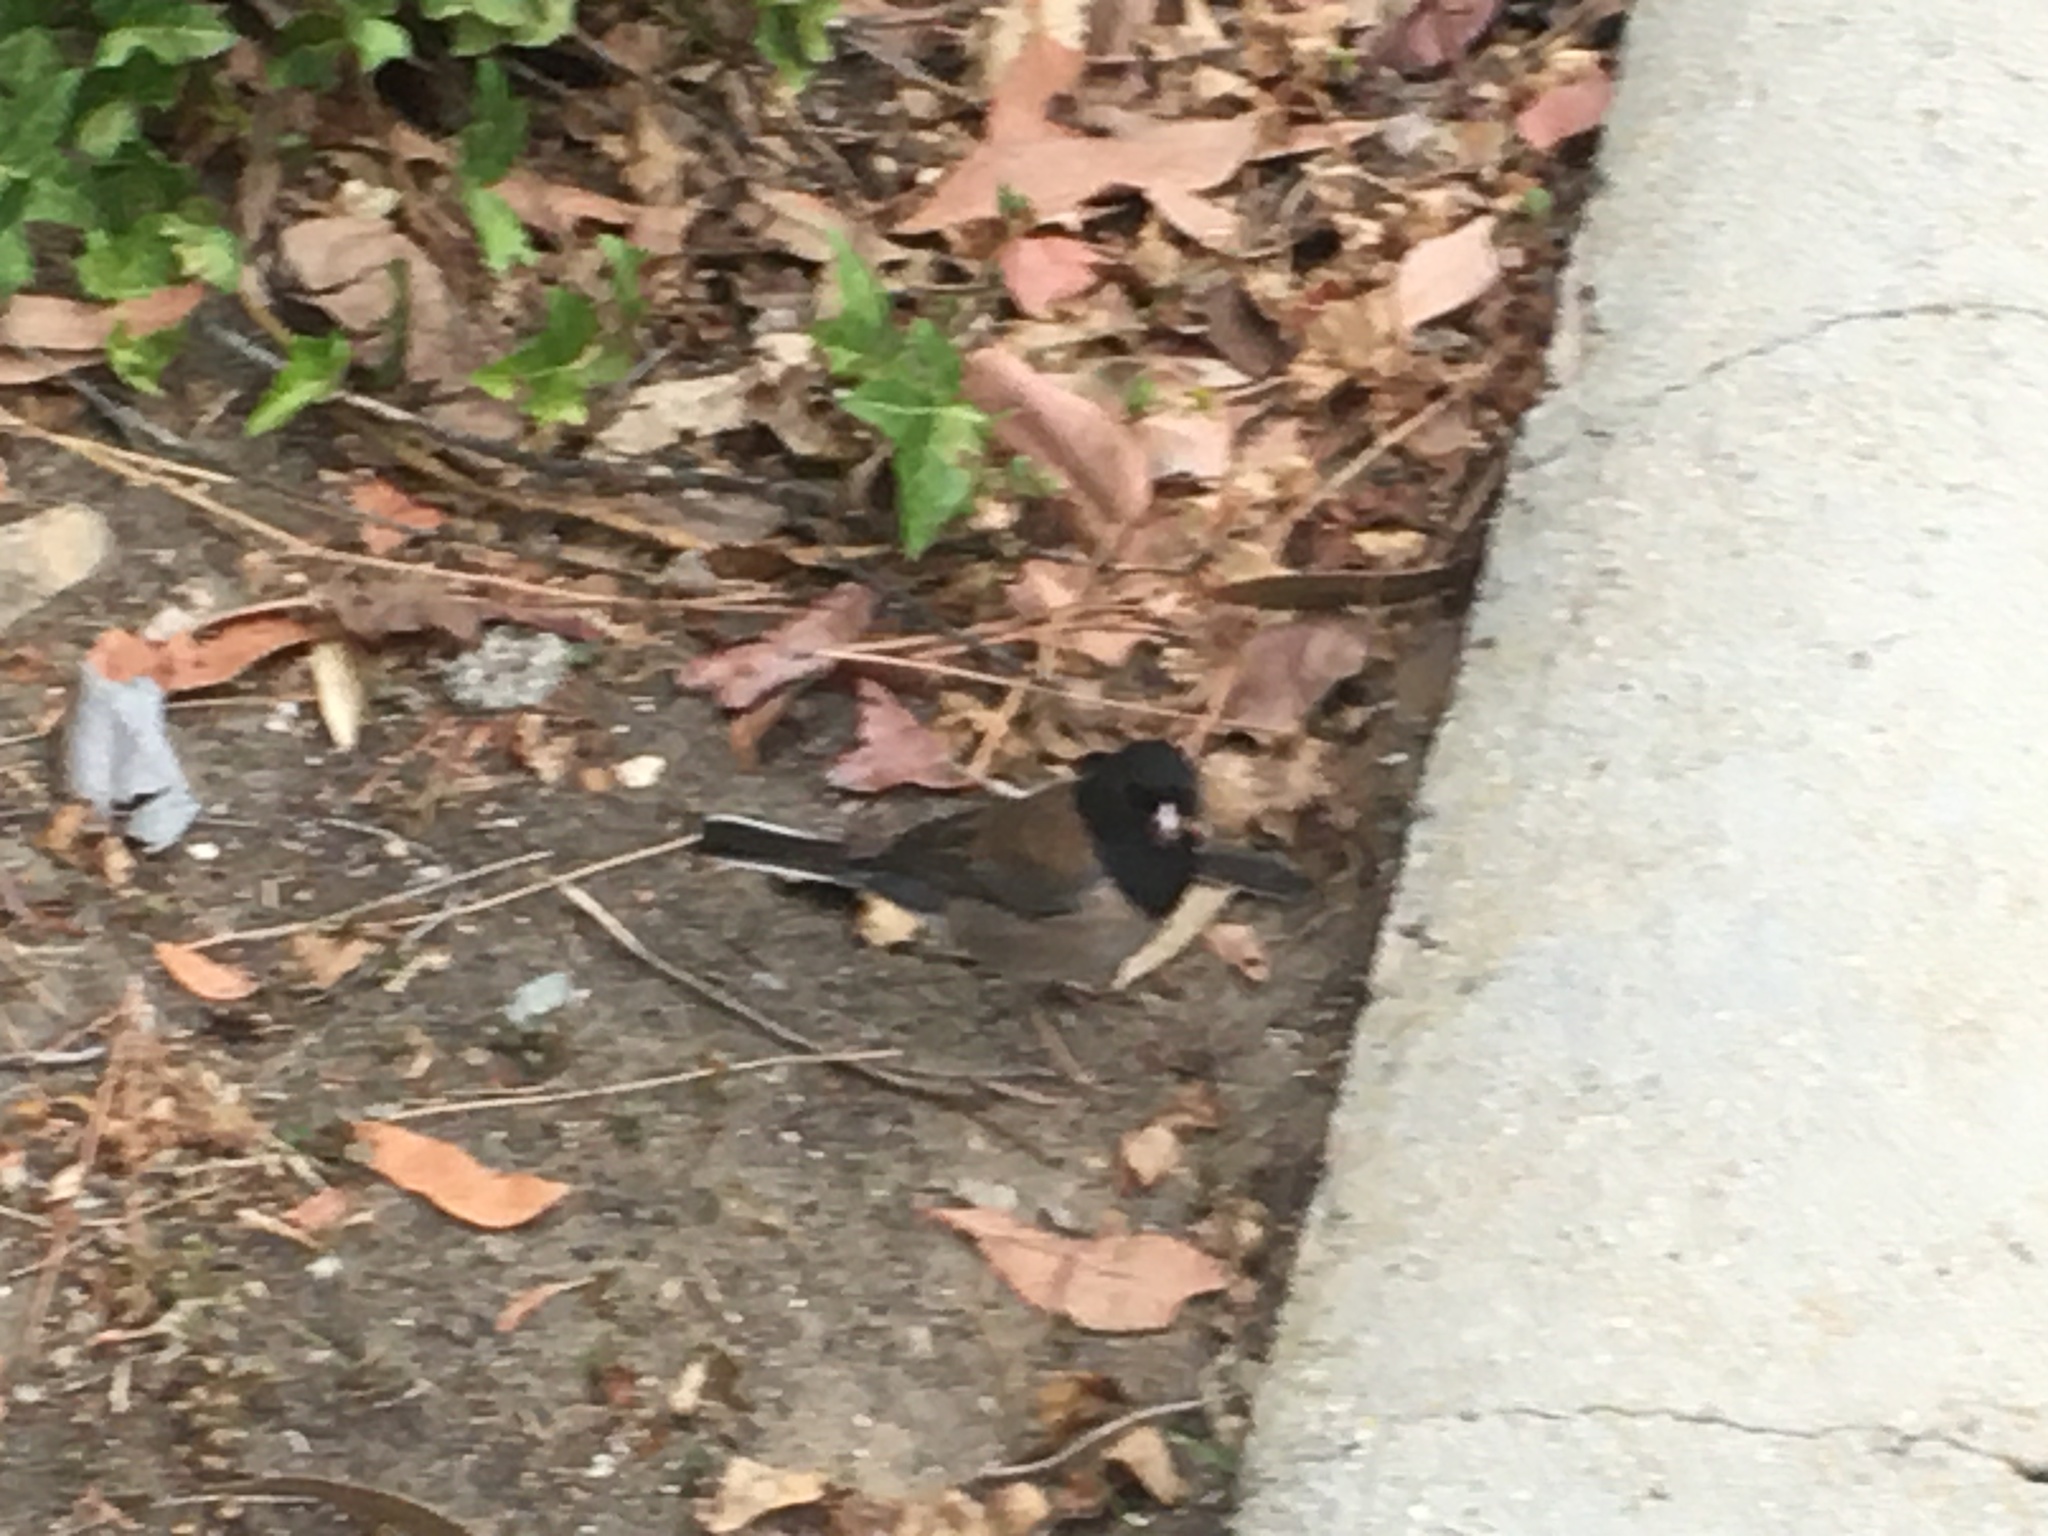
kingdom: Animalia
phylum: Chordata
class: Aves
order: Passeriformes
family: Passerellidae
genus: Junco
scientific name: Junco hyemalis
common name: Dark-eyed junco
